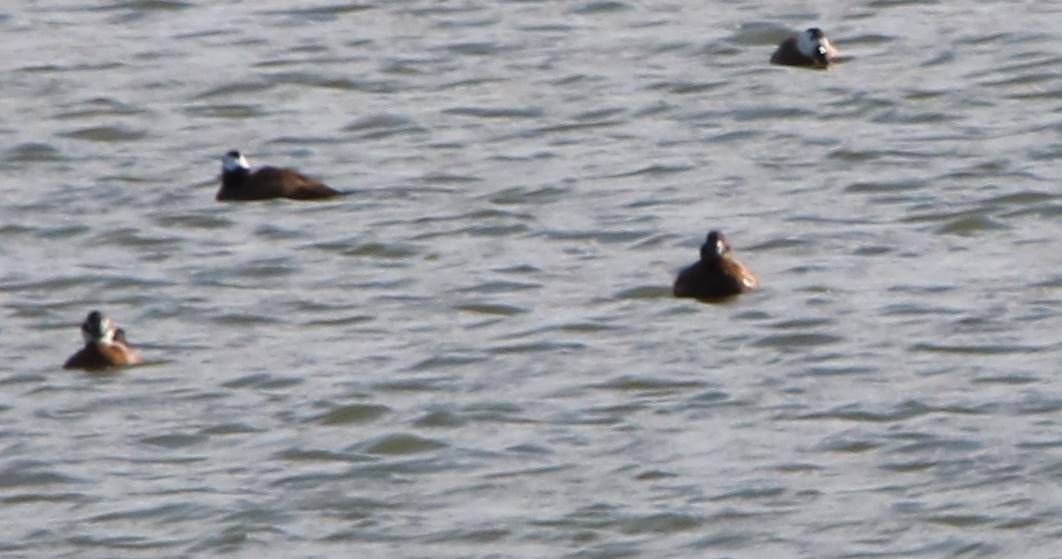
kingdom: Animalia
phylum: Chordata
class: Aves
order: Anseriformes
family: Anatidae
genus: Oxyura
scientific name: Oxyura leucocephala
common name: White-headed duck
